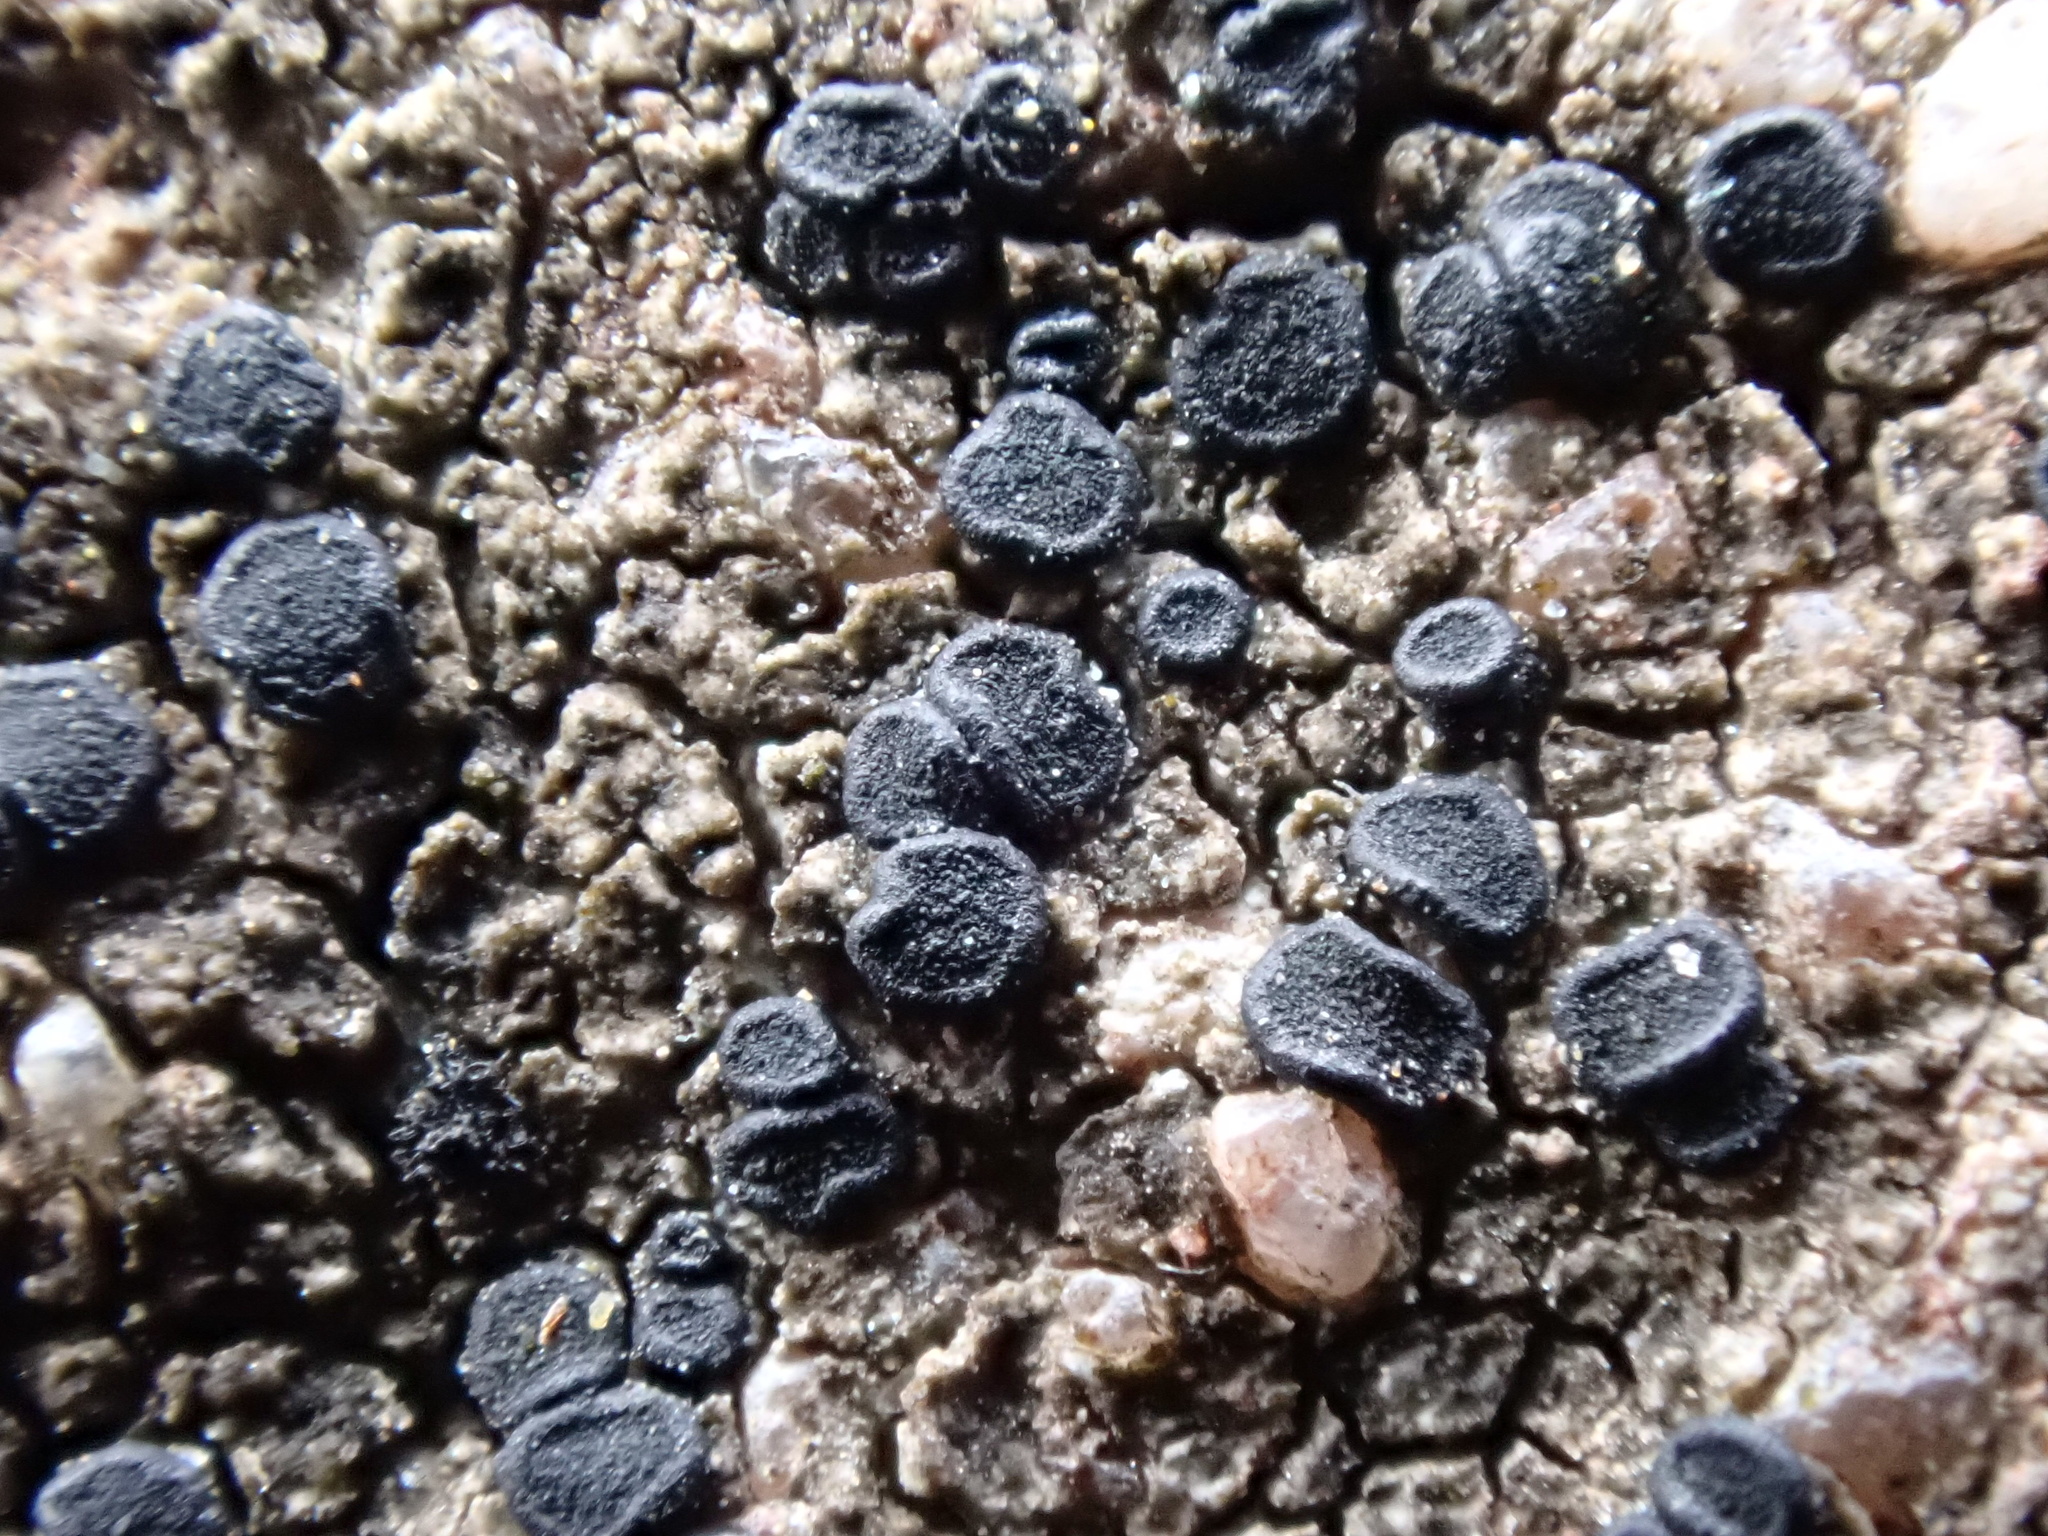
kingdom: Fungi
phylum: Ascomycota
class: Lecanoromycetes
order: Lecanorales
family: Lecanoraceae
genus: Lecidella
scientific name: Lecidella stigmatea
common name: Limestone disc lichen
